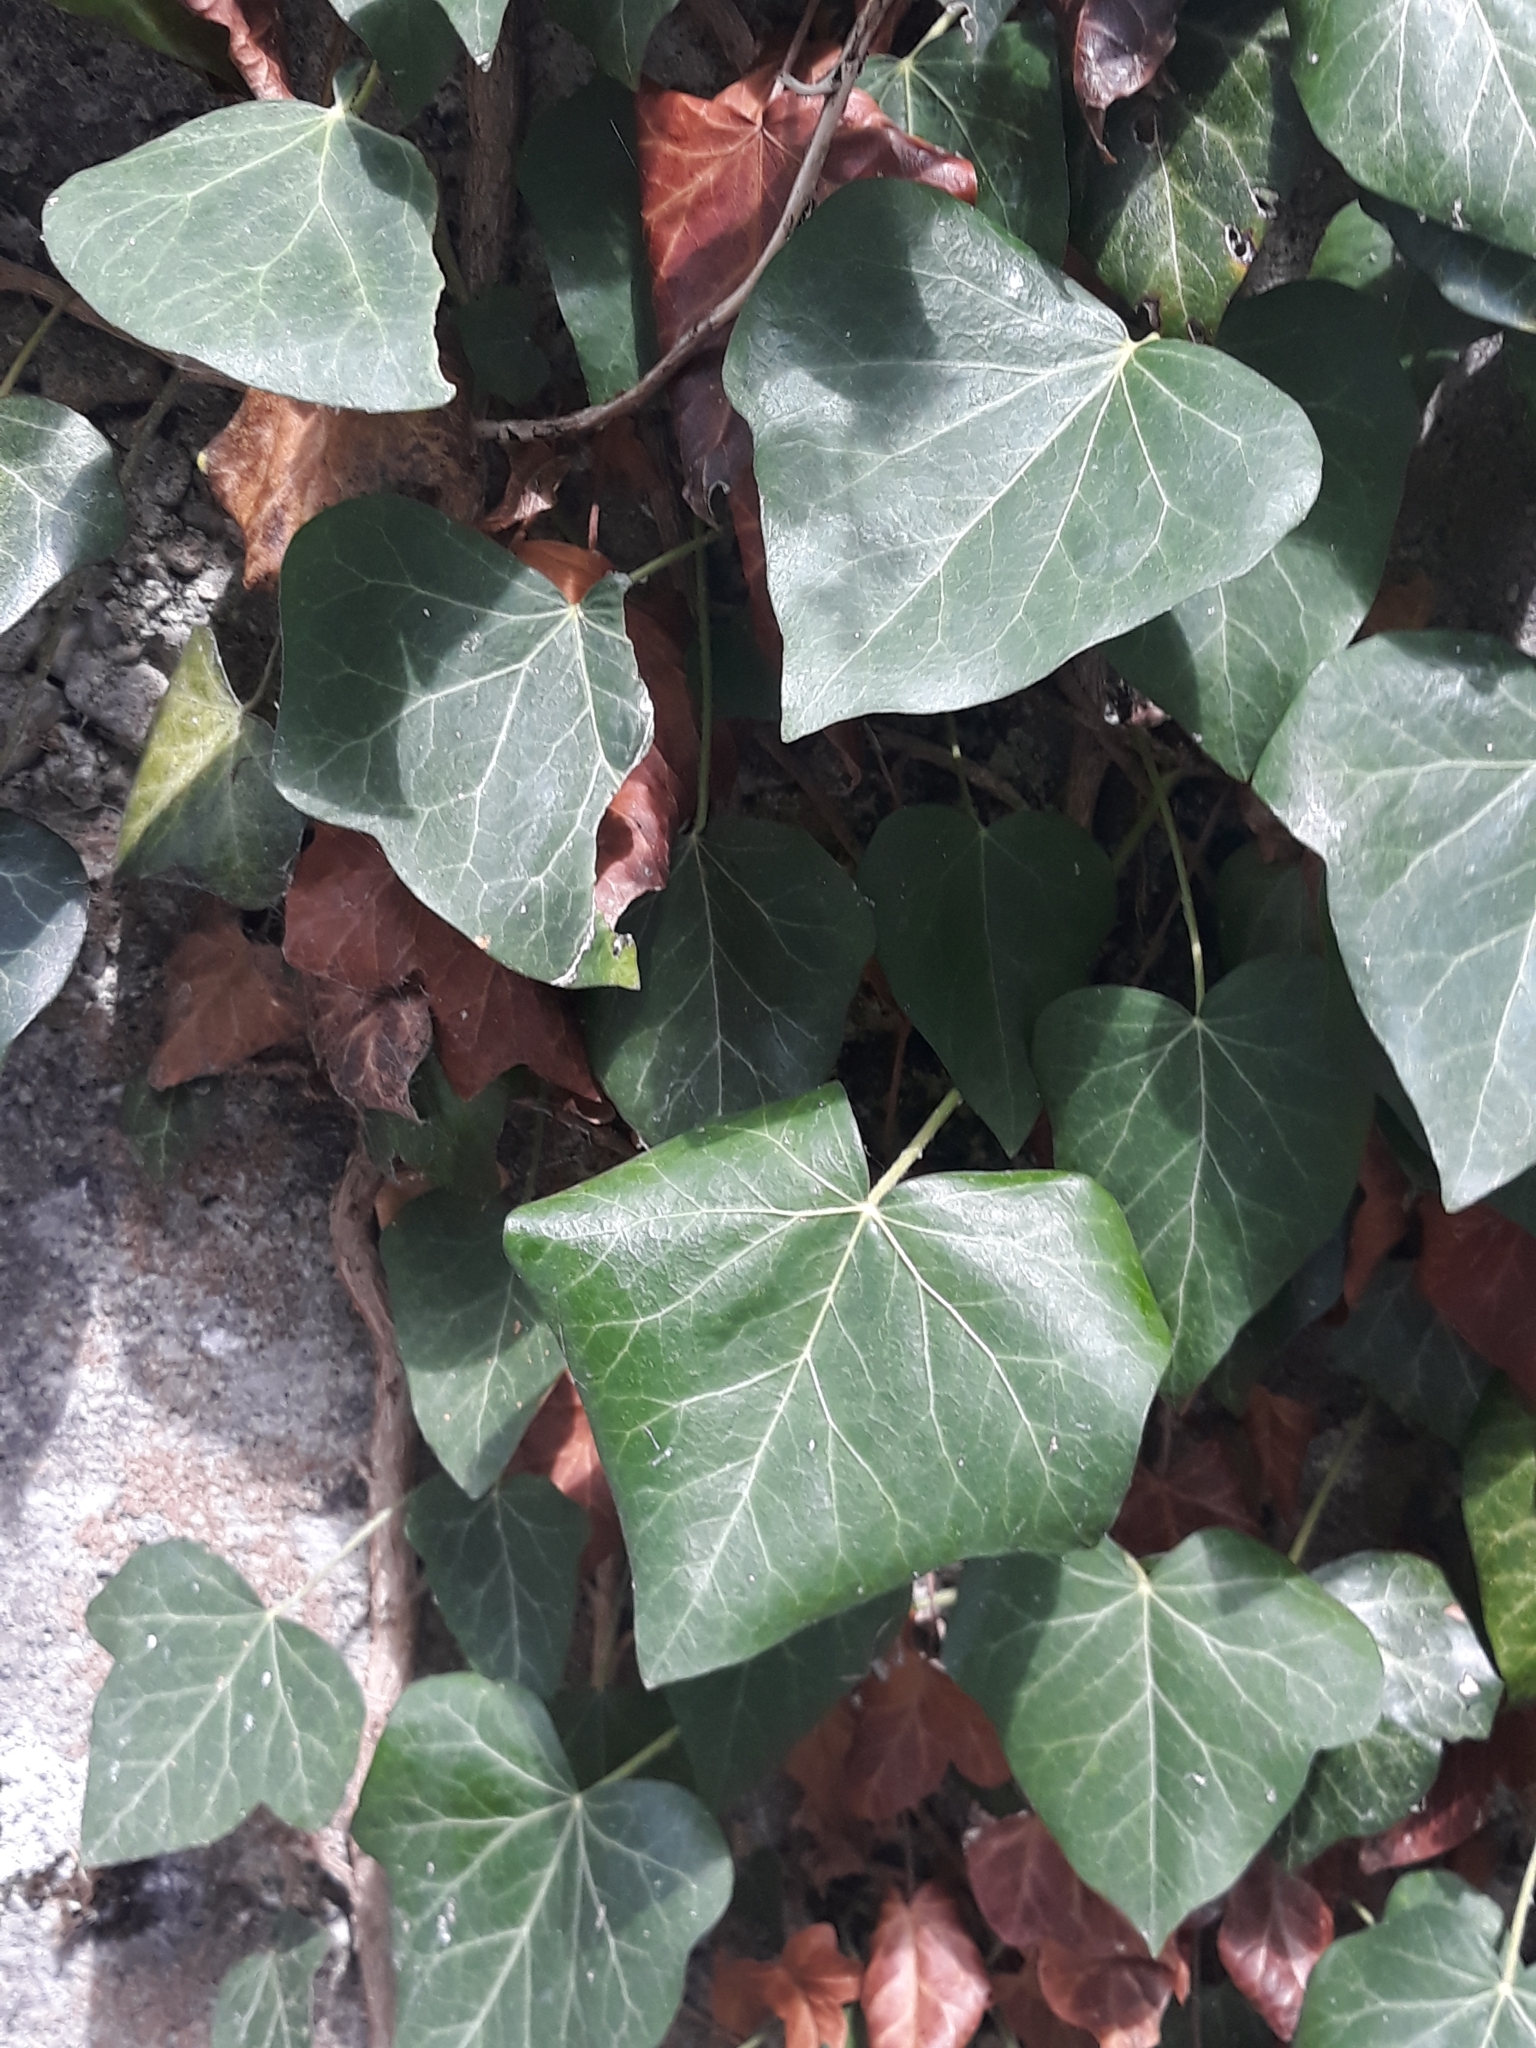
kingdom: Plantae
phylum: Tracheophyta
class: Magnoliopsida
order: Apiales
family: Araliaceae
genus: Hedera
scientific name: Hedera helix
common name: Ivy
